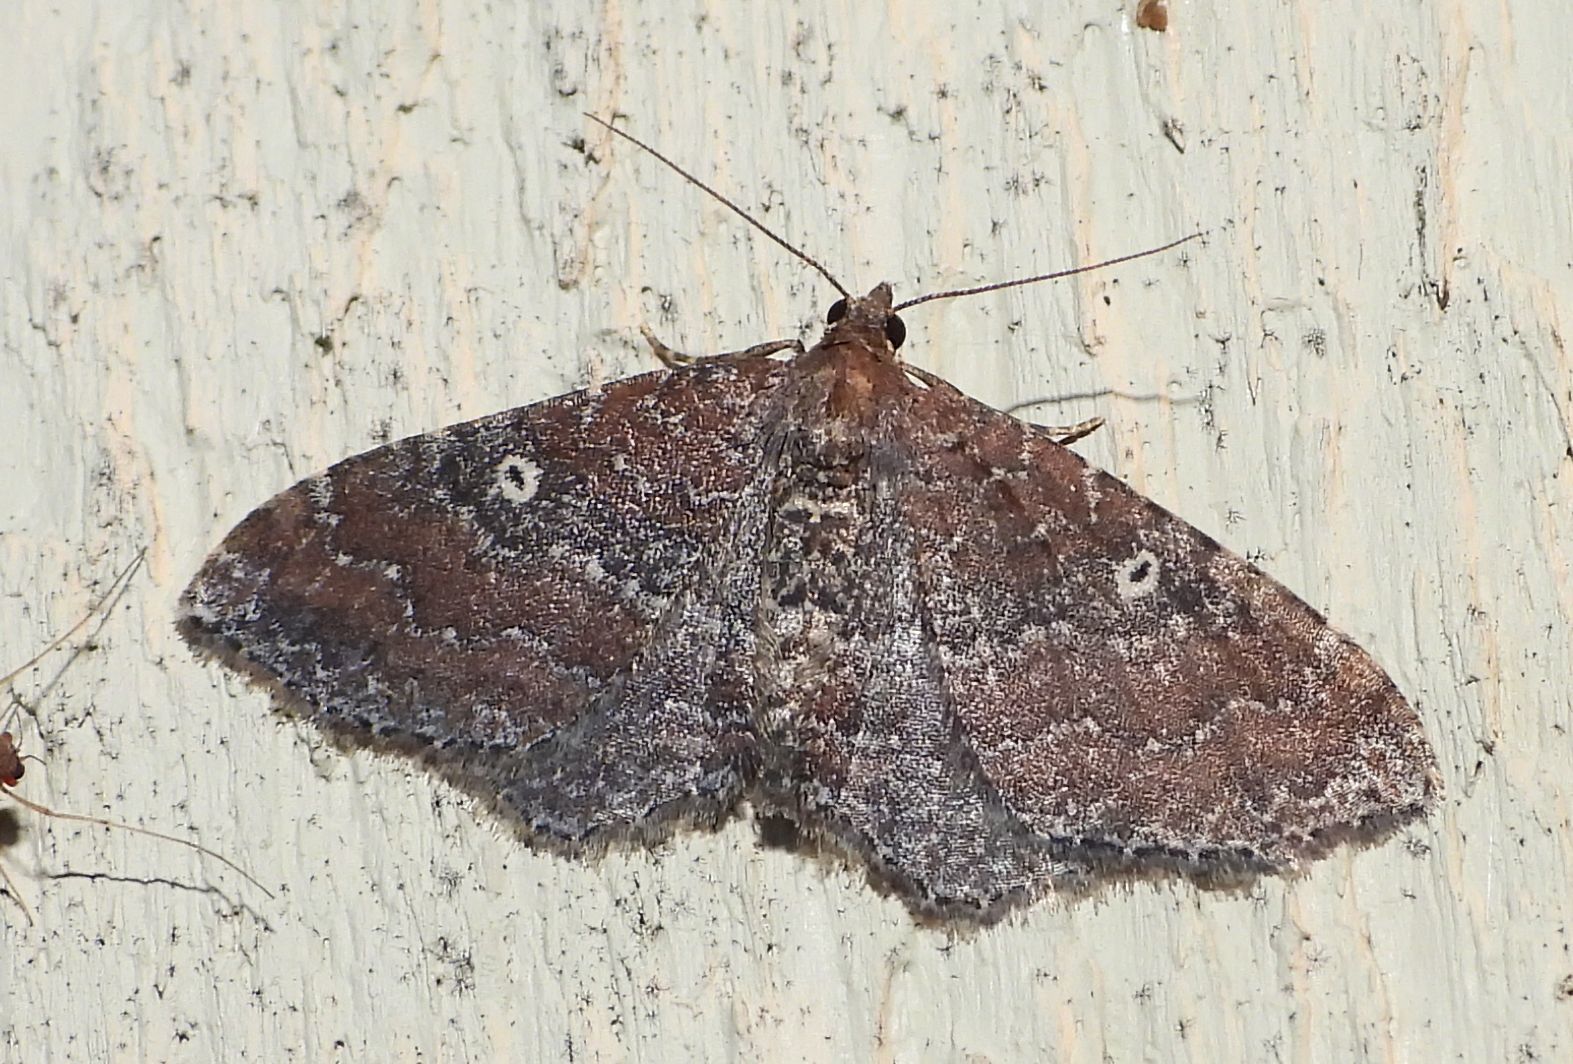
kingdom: Animalia
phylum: Arthropoda
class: Insecta
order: Lepidoptera
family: Geometridae
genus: Orthonama
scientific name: Orthonama obstipata
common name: The gem
